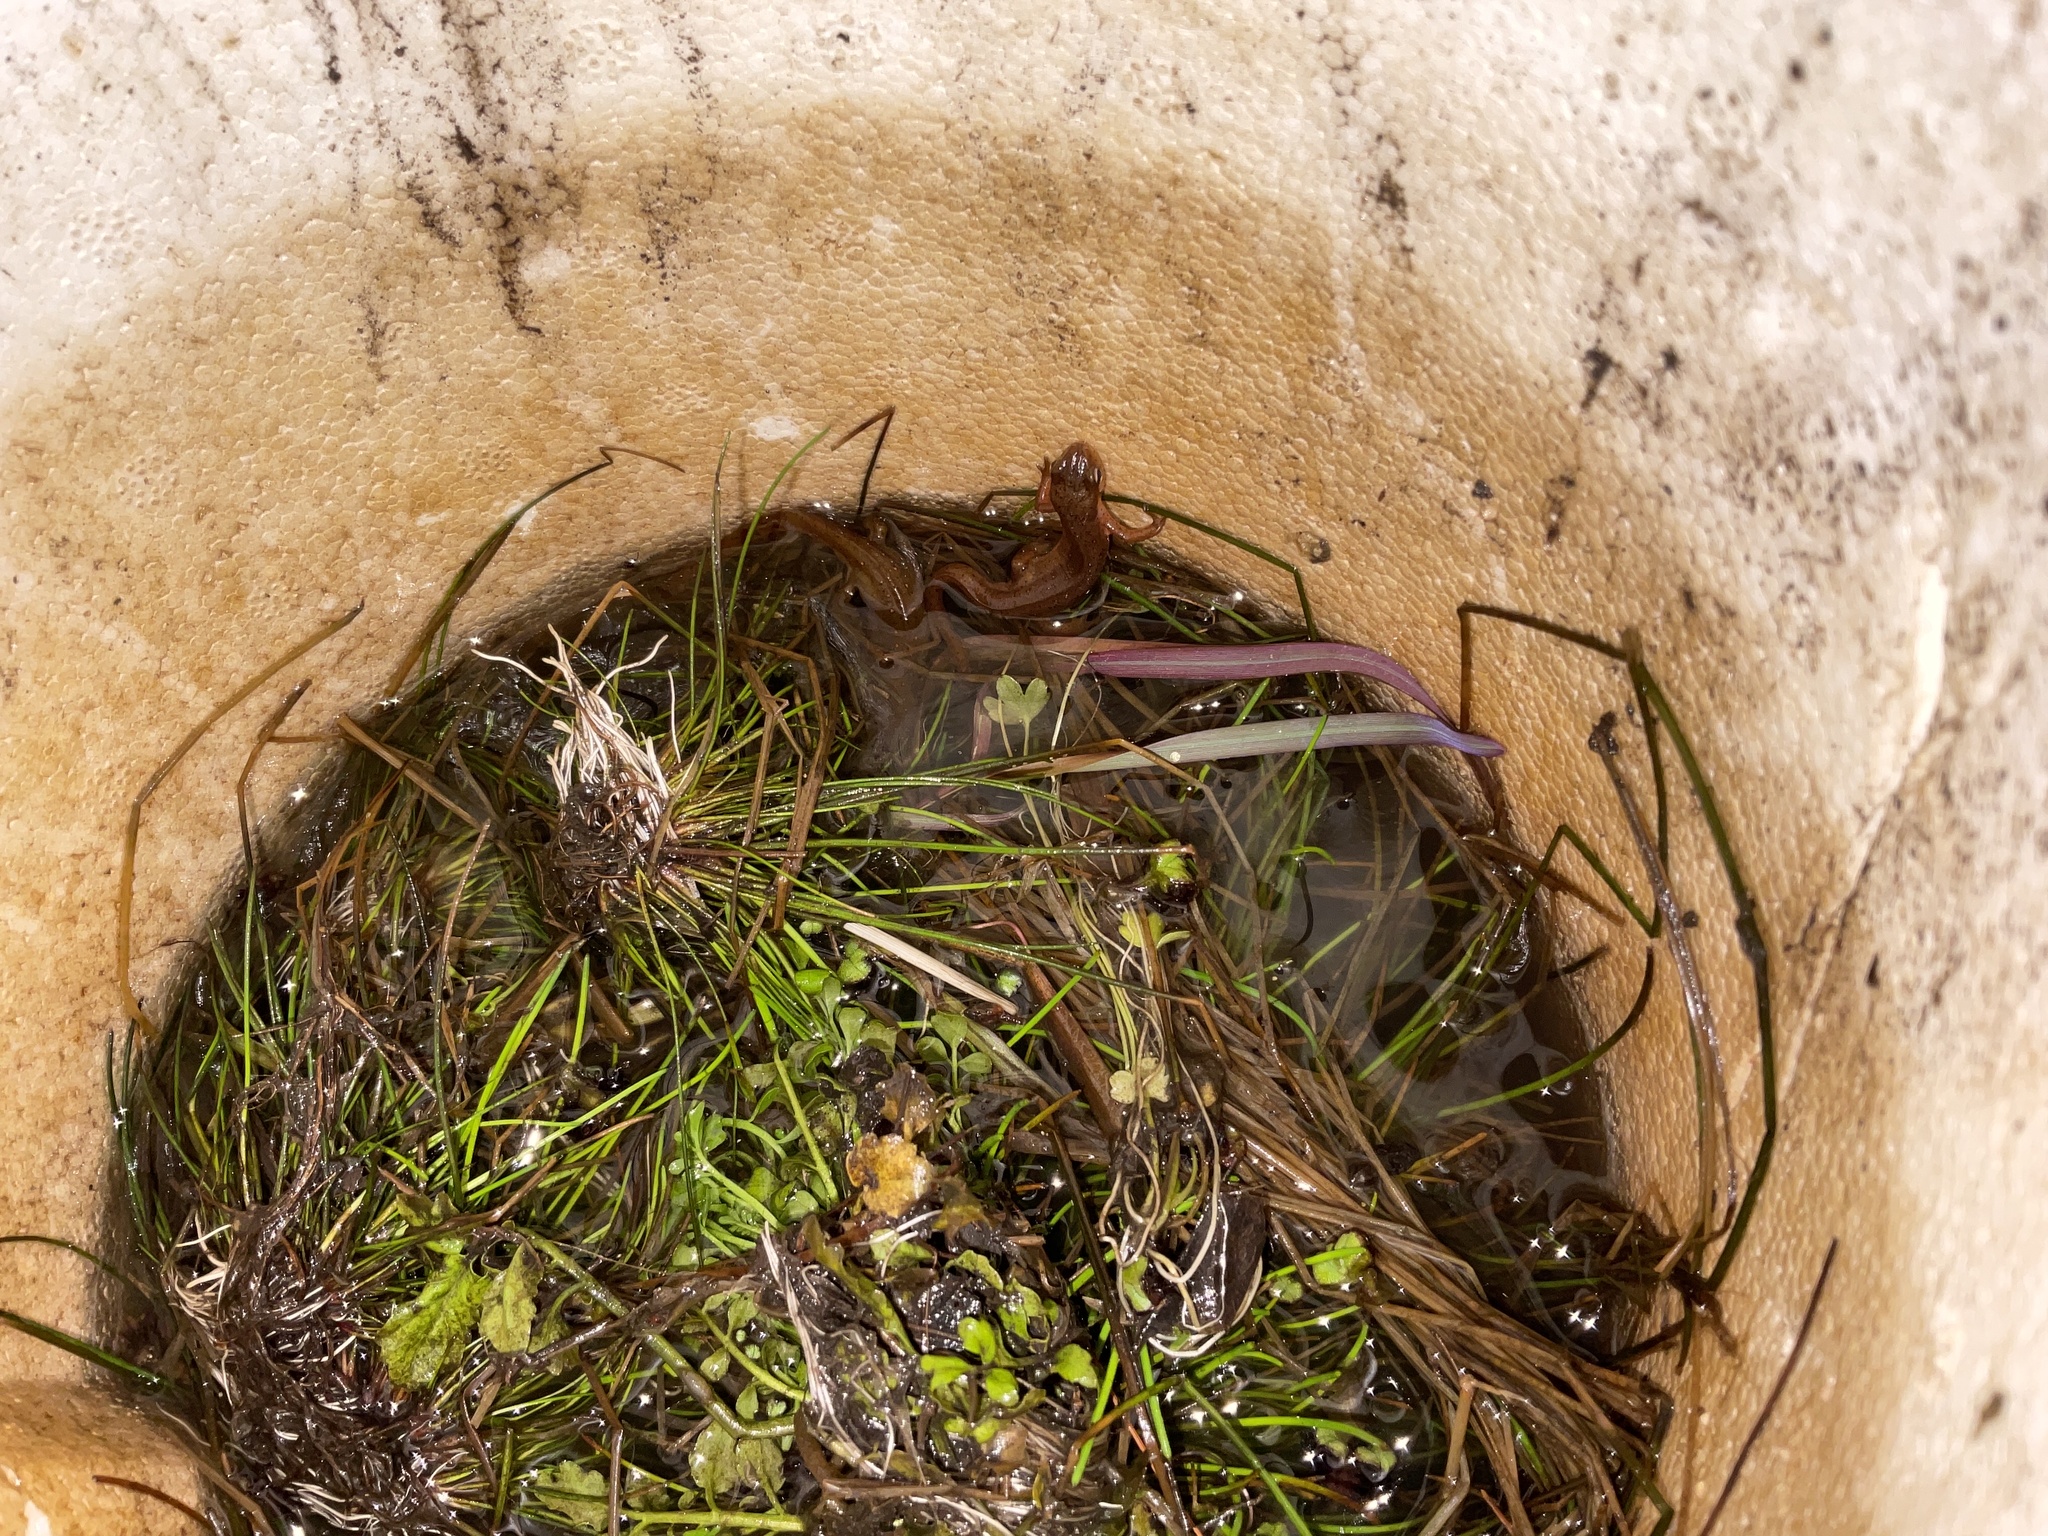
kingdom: Animalia
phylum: Chordata
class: Amphibia
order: Caudata
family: Salamandridae
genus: Notophthalmus
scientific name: Notophthalmus viridescens
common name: Eastern newt
